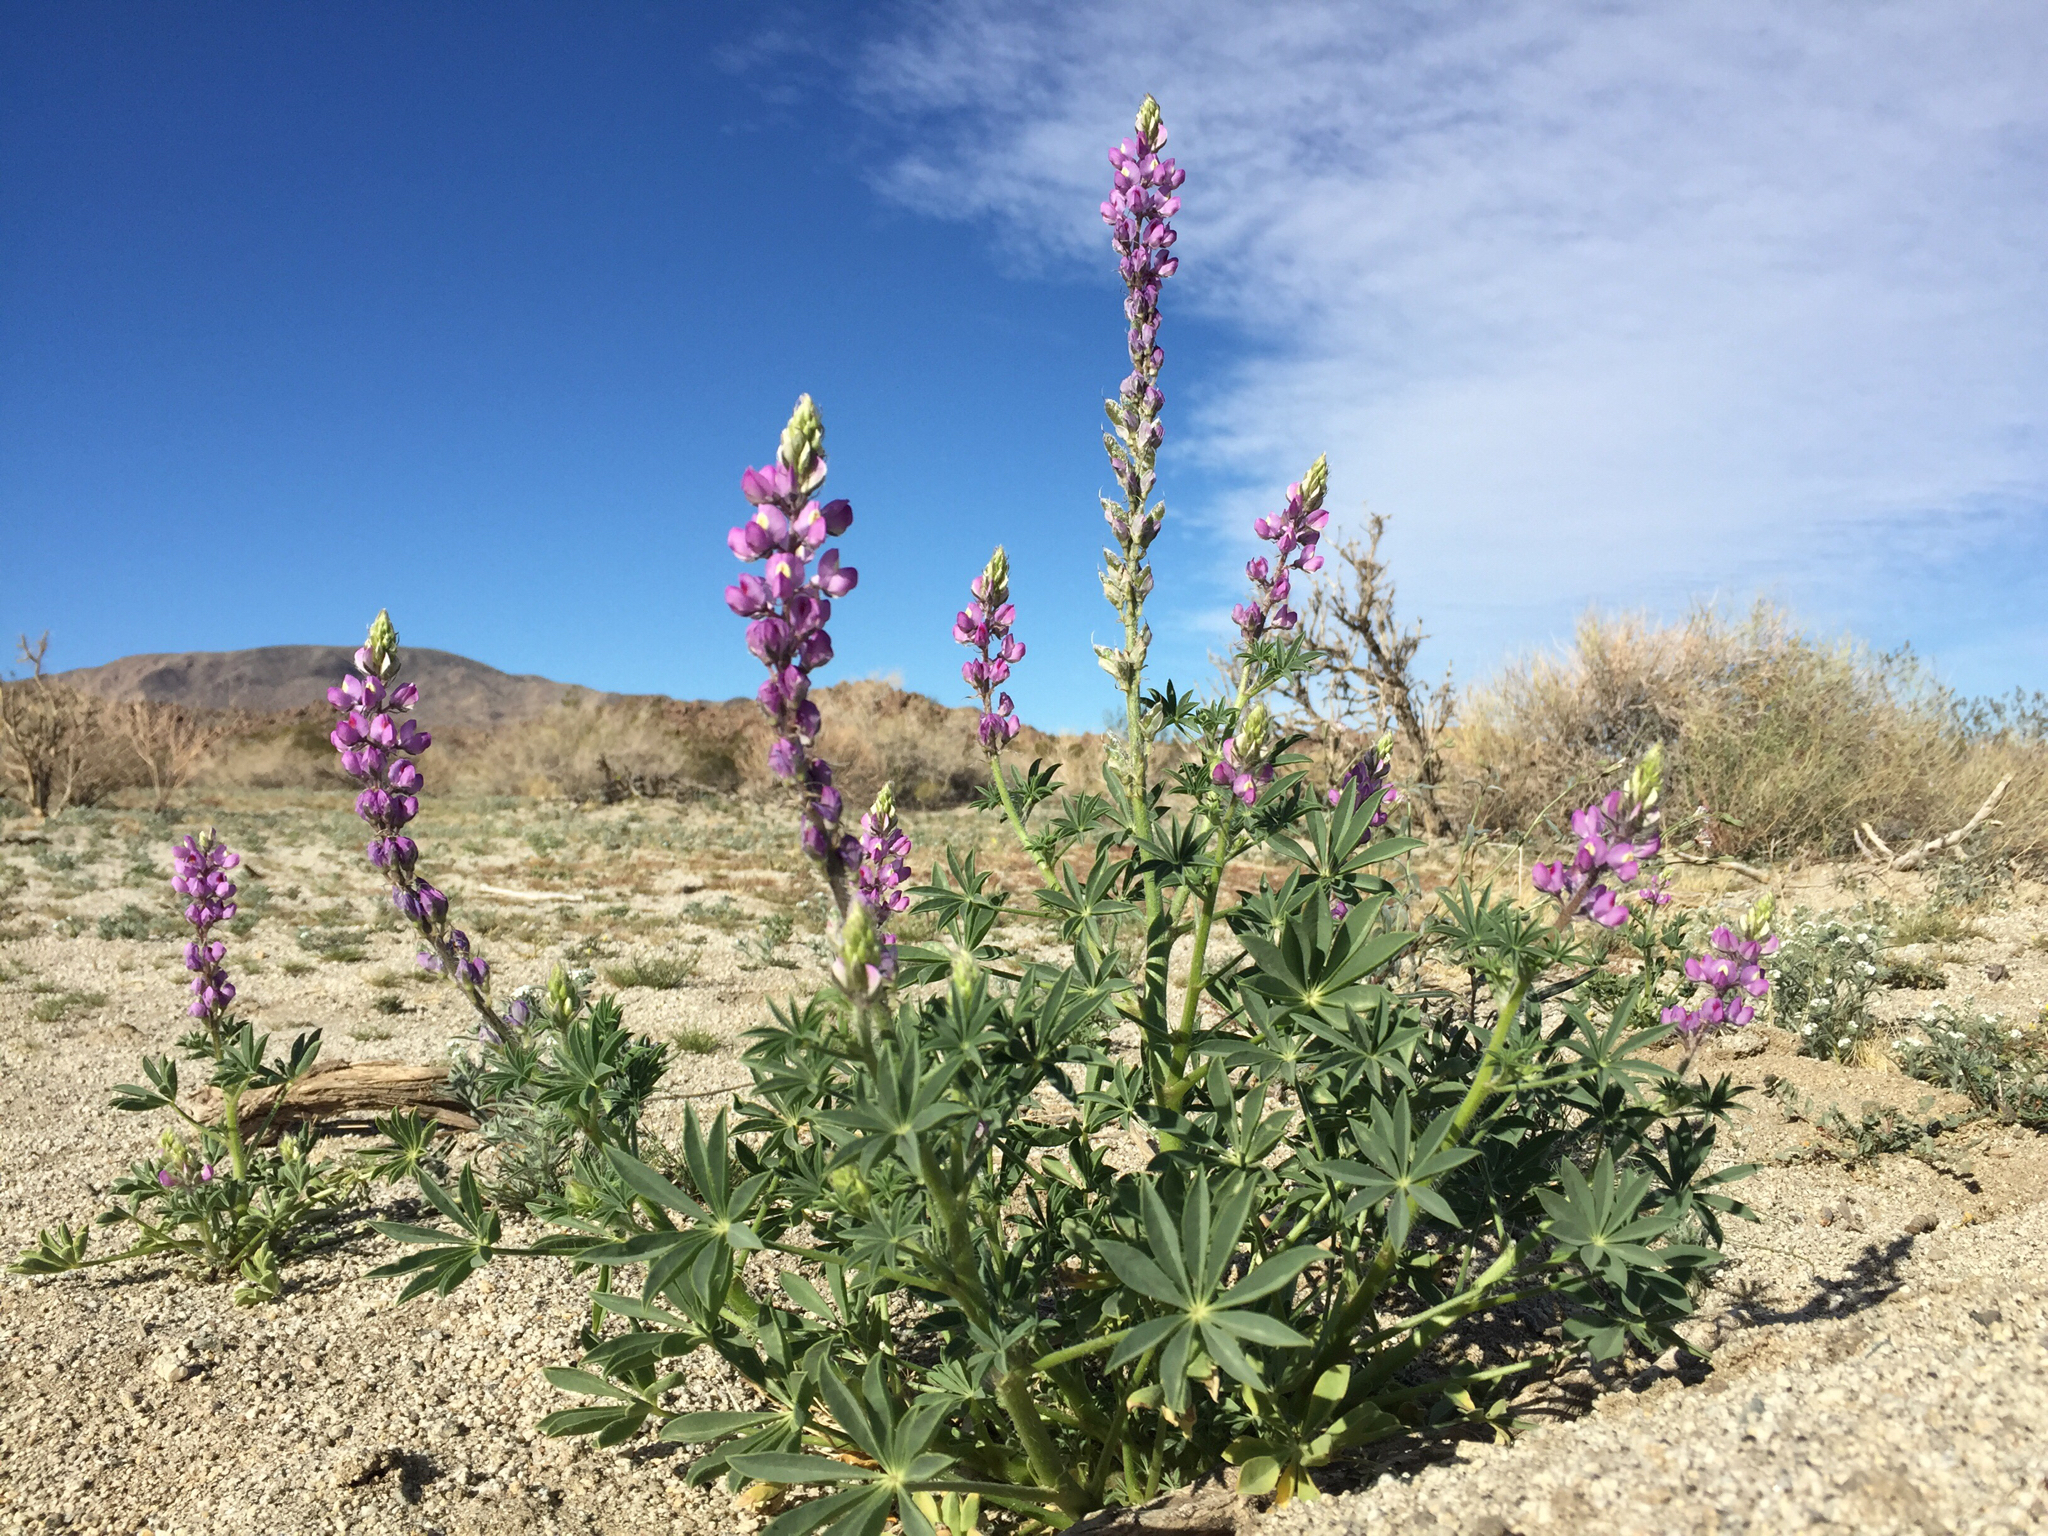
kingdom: Plantae
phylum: Tracheophyta
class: Magnoliopsida
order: Fabales
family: Fabaceae
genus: Lupinus
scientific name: Lupinus arizonicus
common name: Arizona lupine
